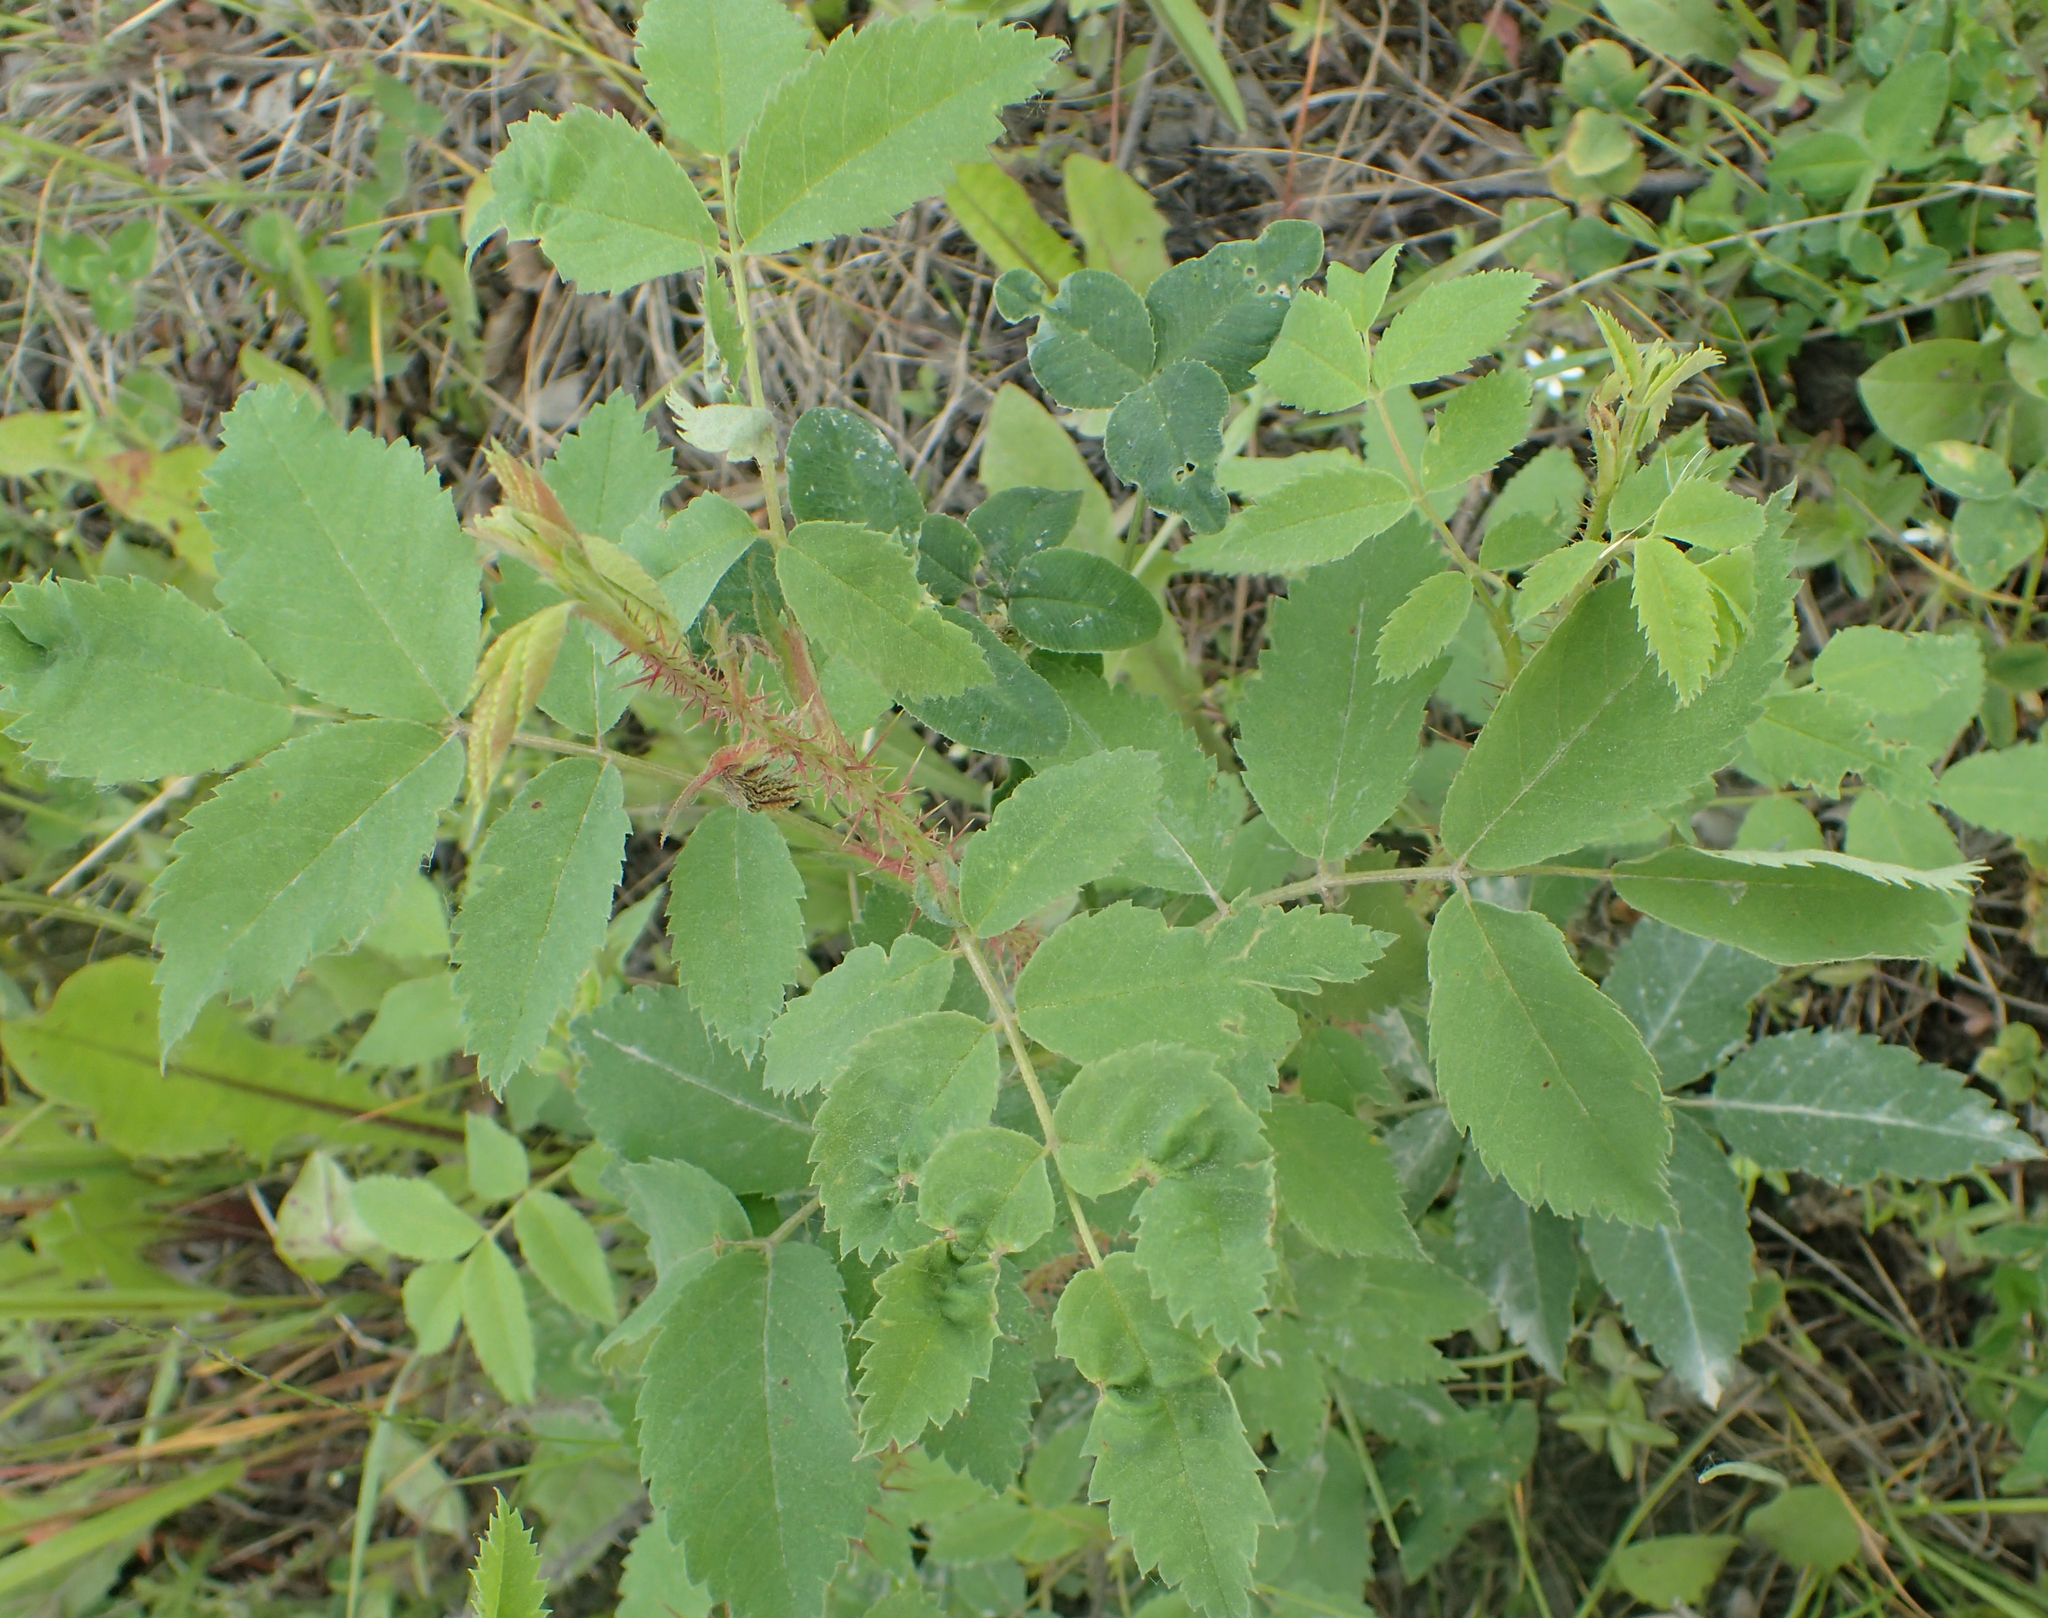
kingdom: Plantae
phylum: Tracheophyta
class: Magnoliopsida
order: Rosales
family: Rosaceae
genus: Rosa
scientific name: Rosa acicularis
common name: Prickly rose
